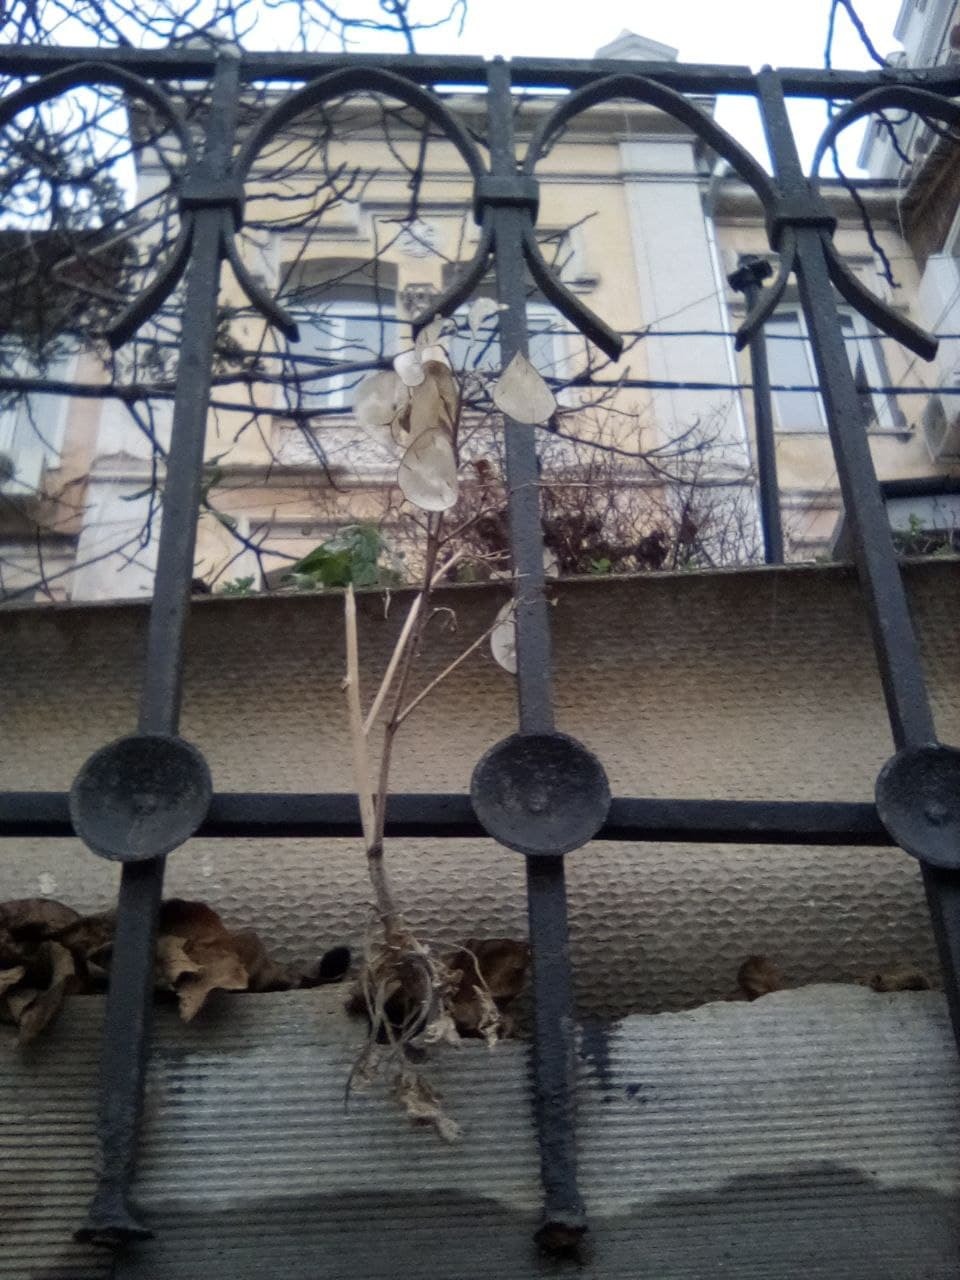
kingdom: Plantae
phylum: Tracheophyta
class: Magnoliopsida
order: Brassicales
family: Brassicaceae
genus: Lunaria
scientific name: Lunaria annua
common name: Honesty
